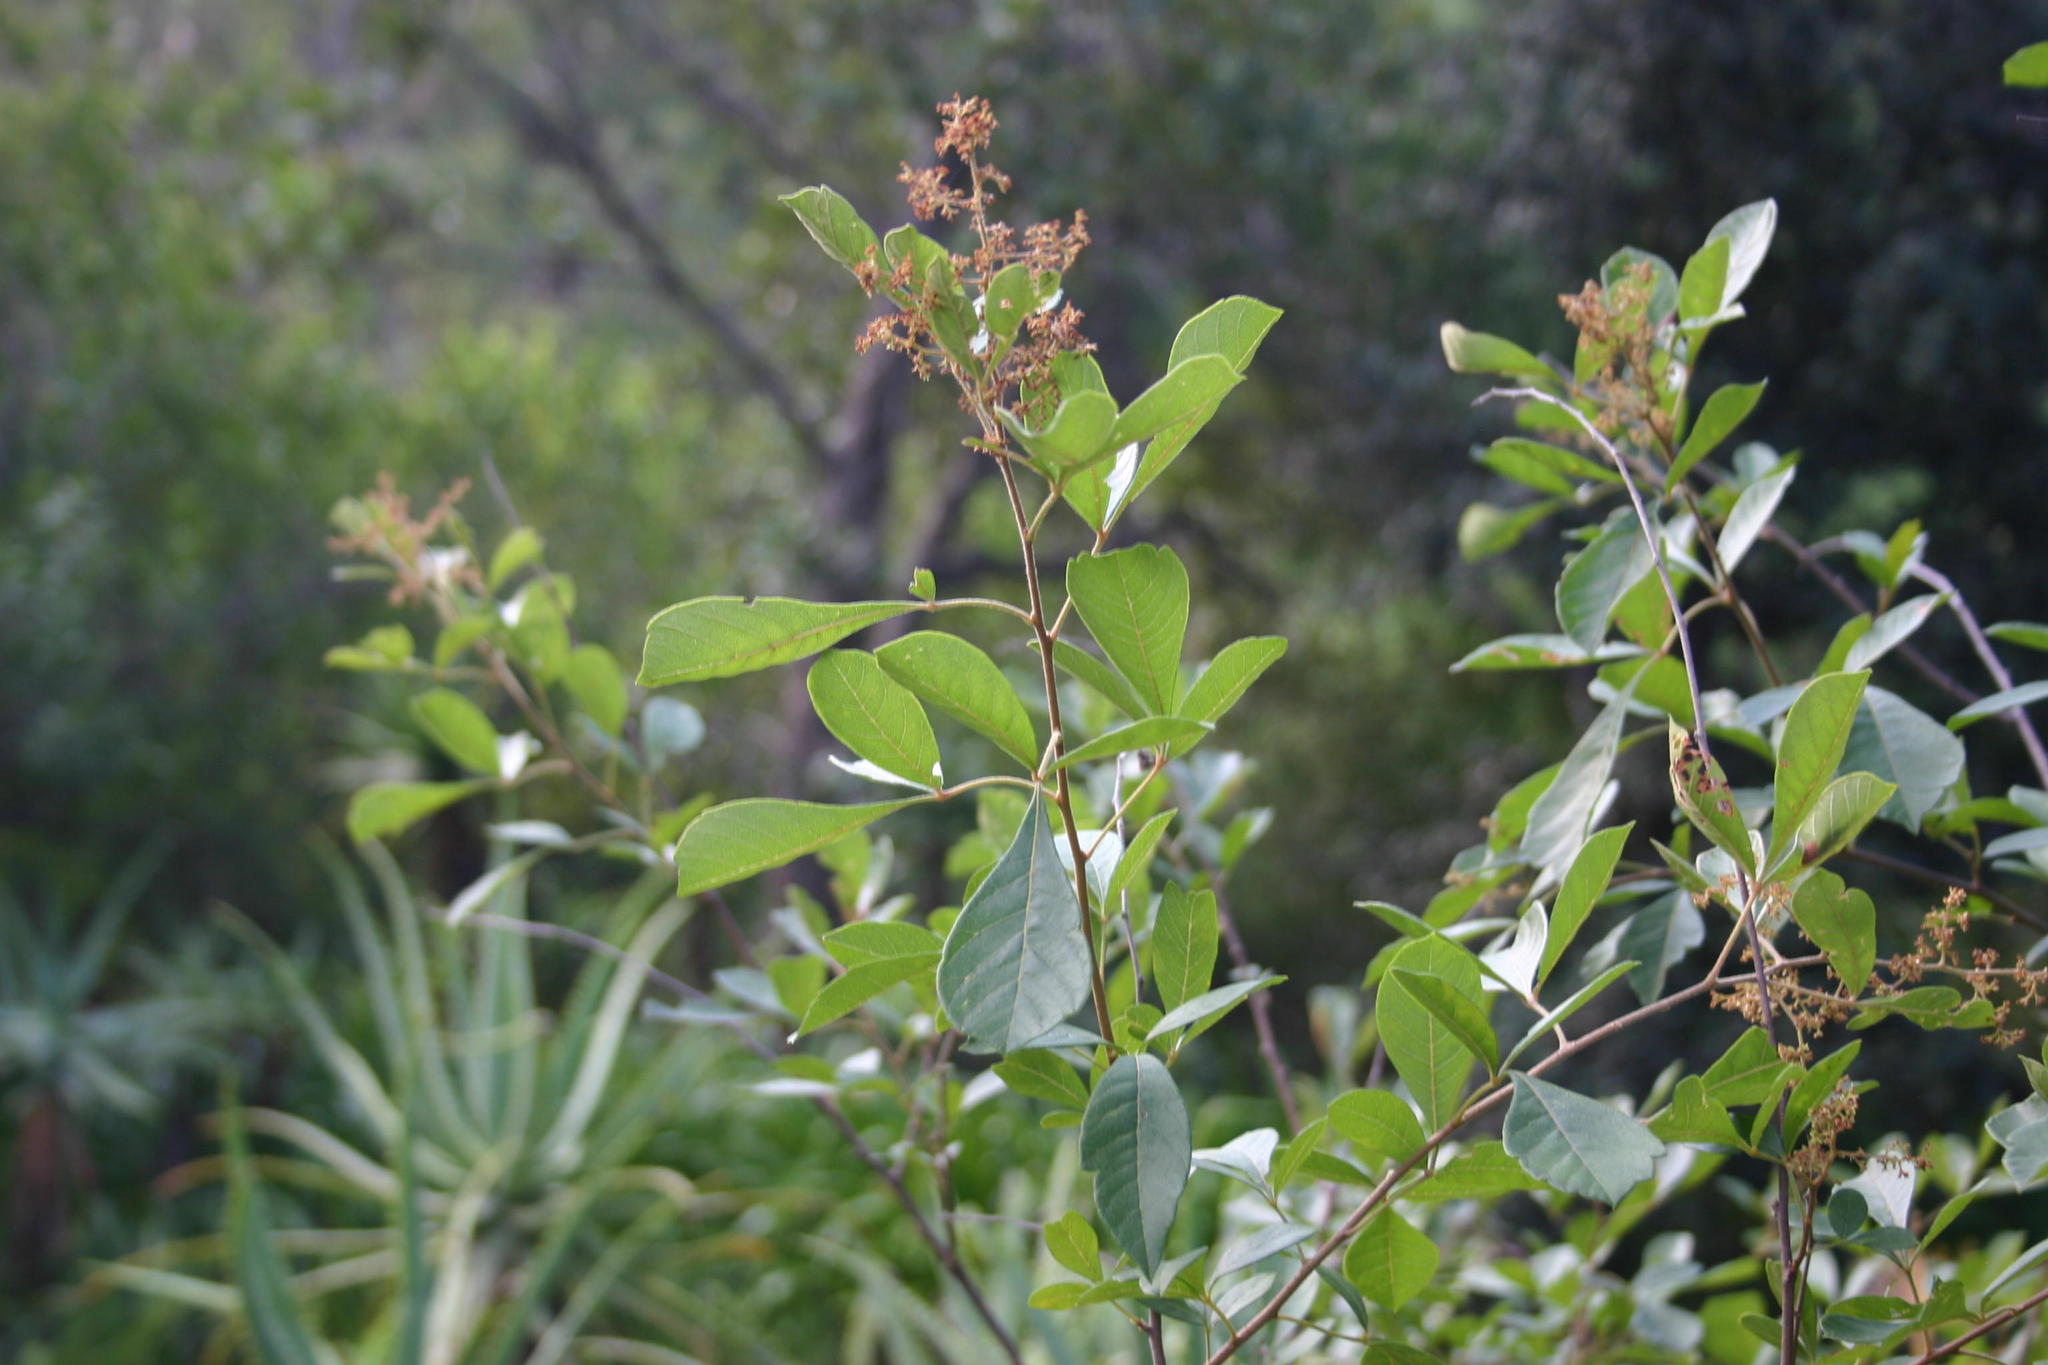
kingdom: Plantae
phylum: Tracheophyta
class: Magnoliopsida
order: Sapindales
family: Anacardiaceae
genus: Searsia
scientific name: Searsia rehmanniana
